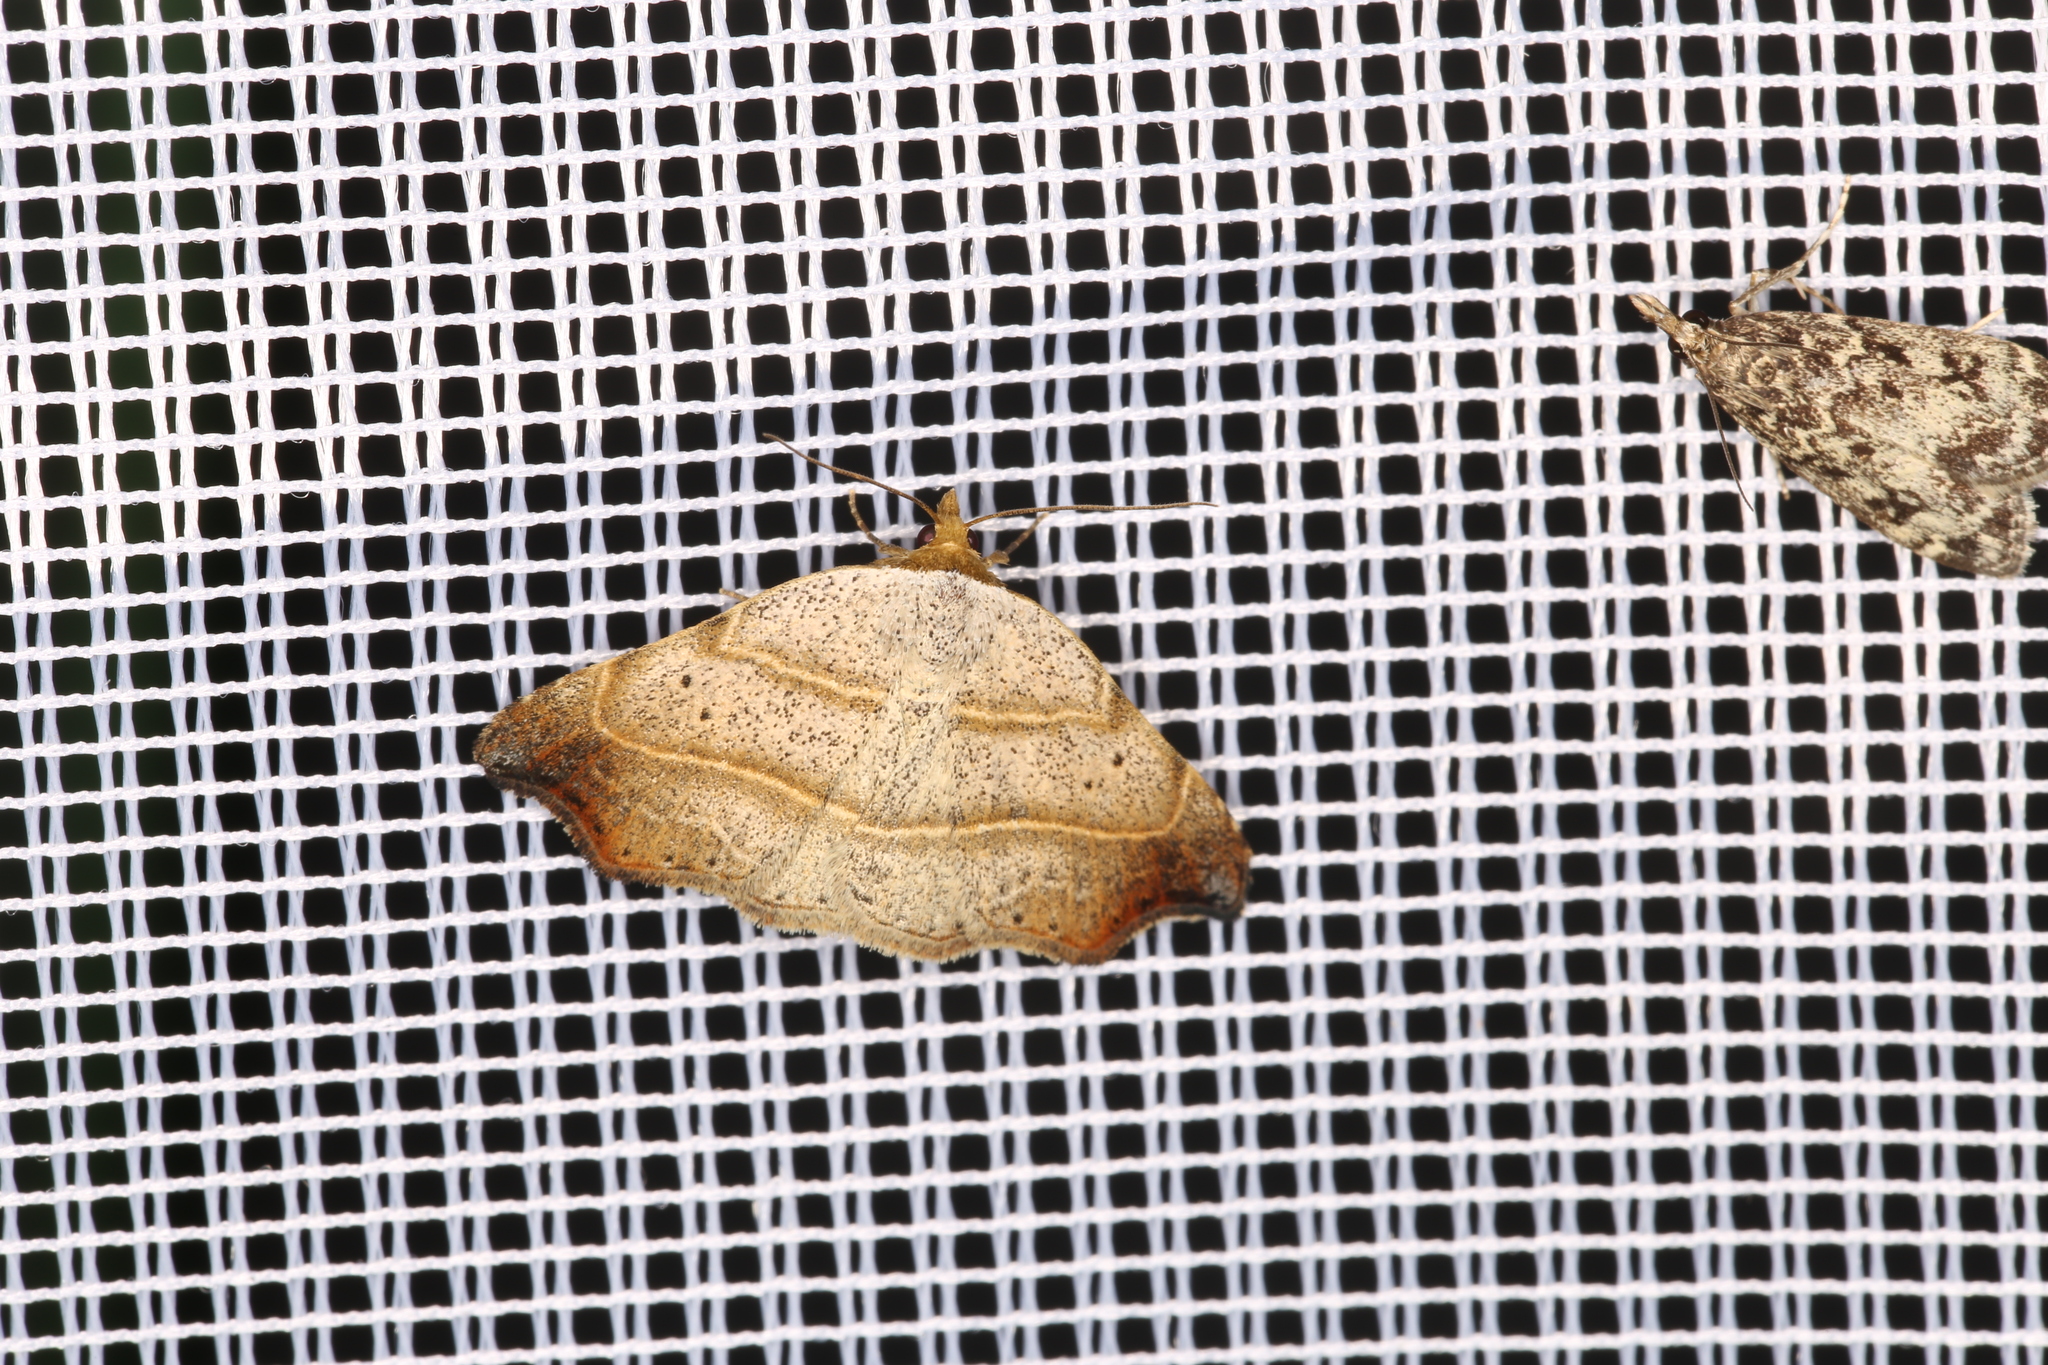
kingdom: Animalia
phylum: Arthropoda
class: Insecta
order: Lepidoptera
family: Erebidae
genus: Laspeyria
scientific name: Laspeyria flexula
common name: Beautiful hook-tip
